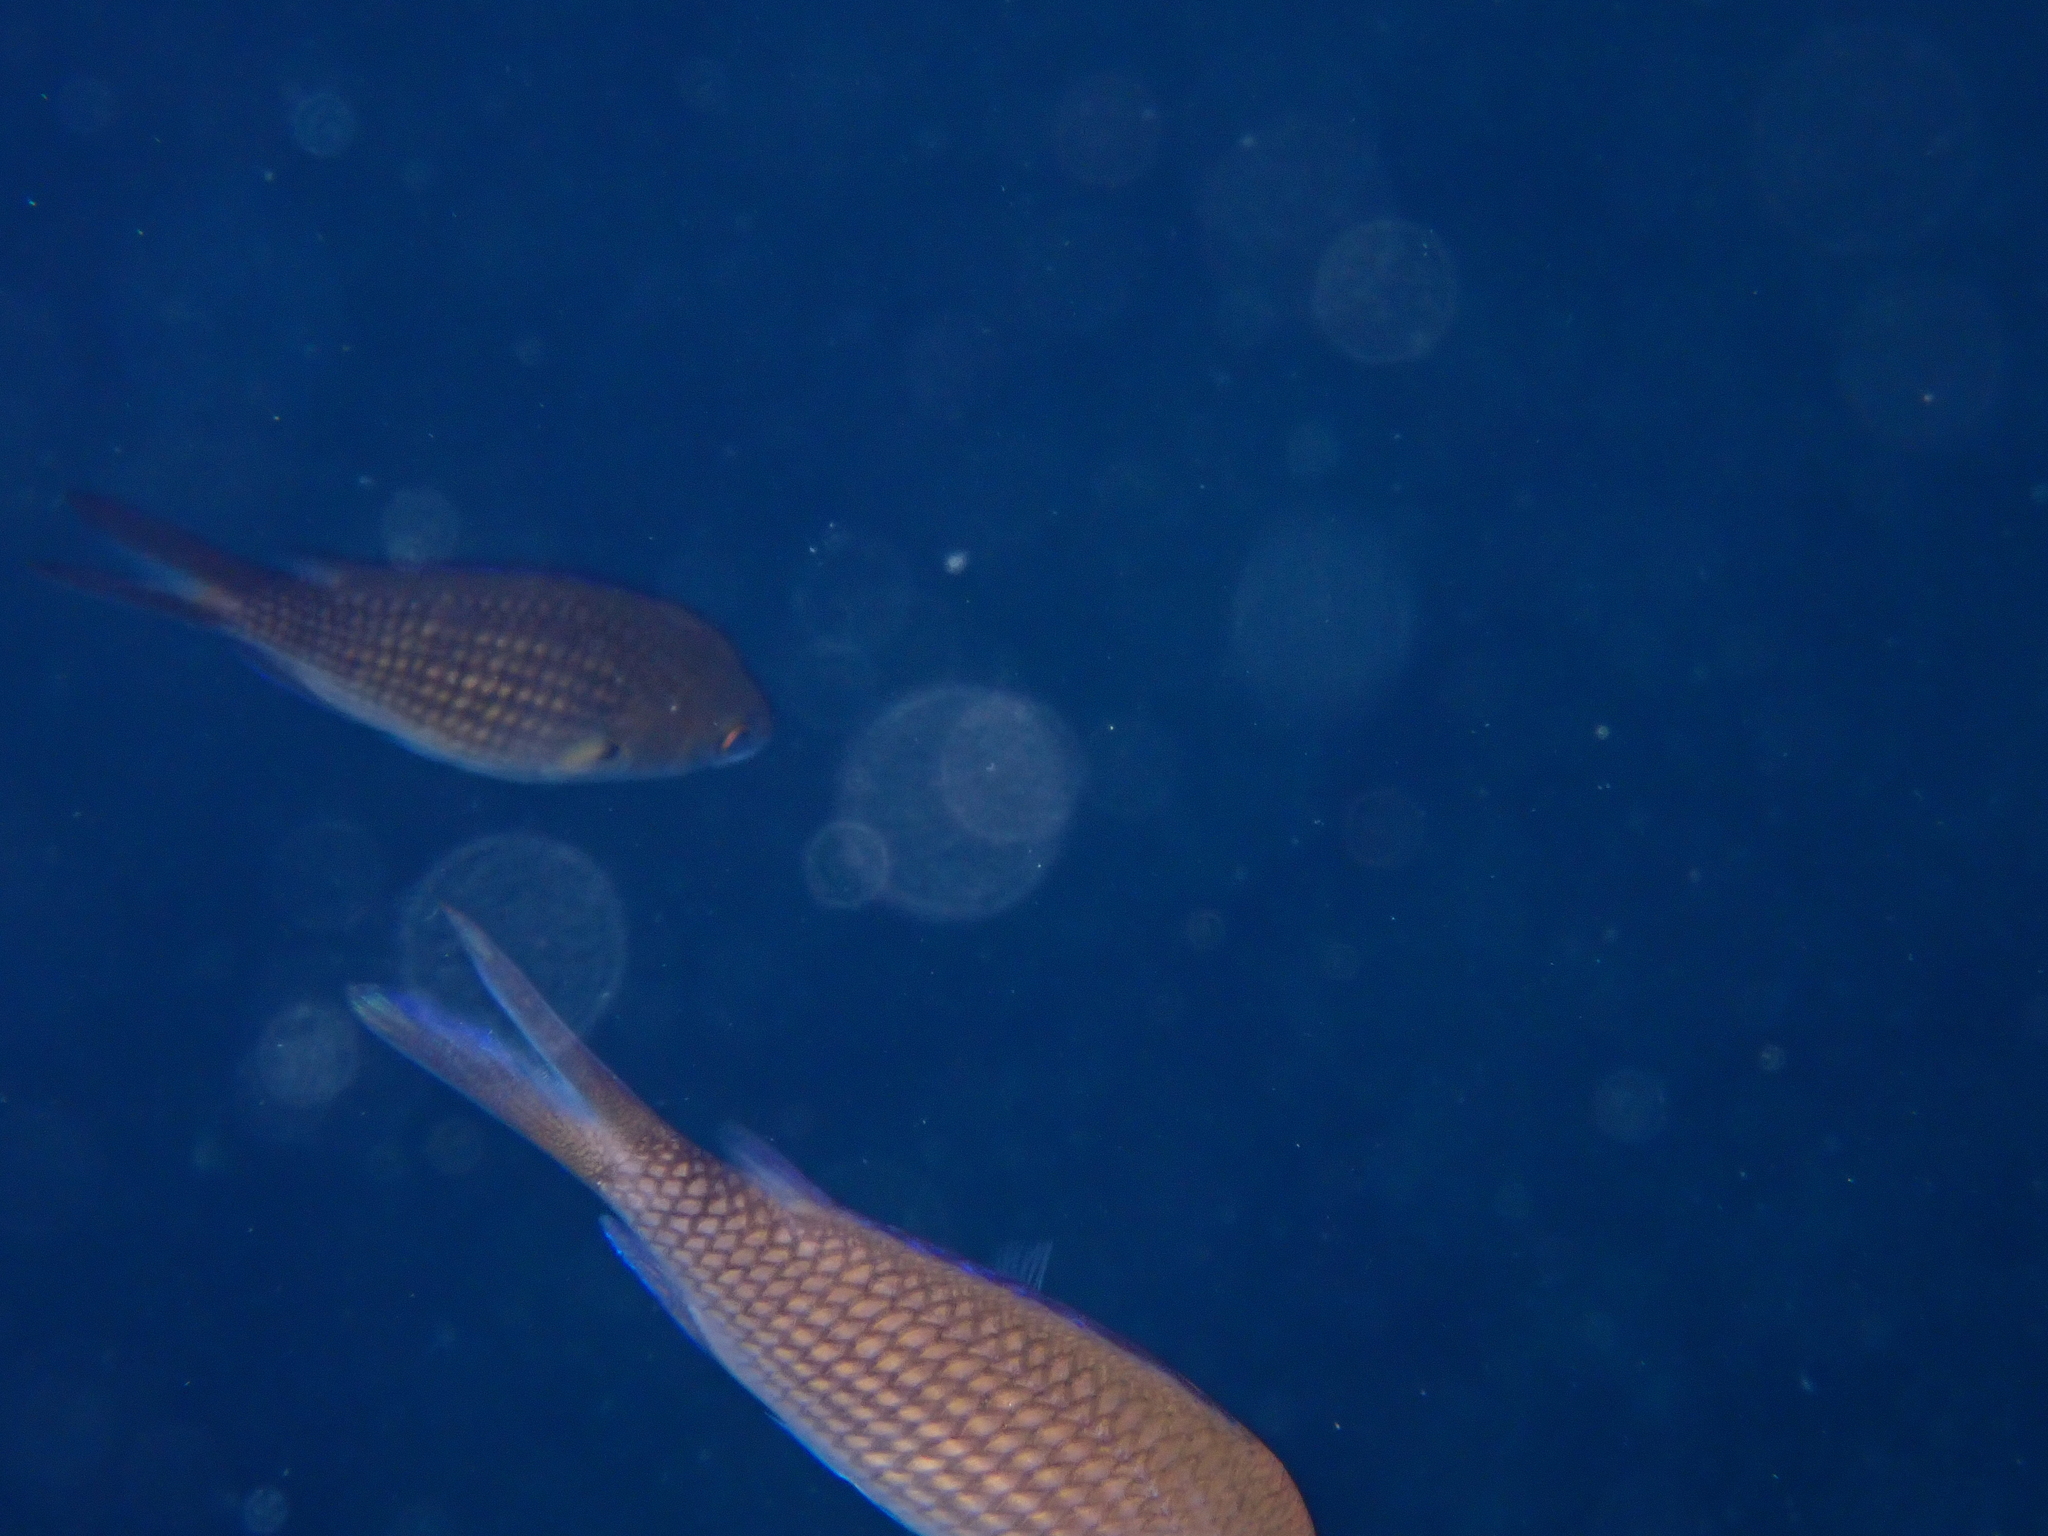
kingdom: Animalia
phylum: Chordata
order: Perciformes
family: Pomacentridae
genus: Chromis
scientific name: Chromis chromis
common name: Damselfish
